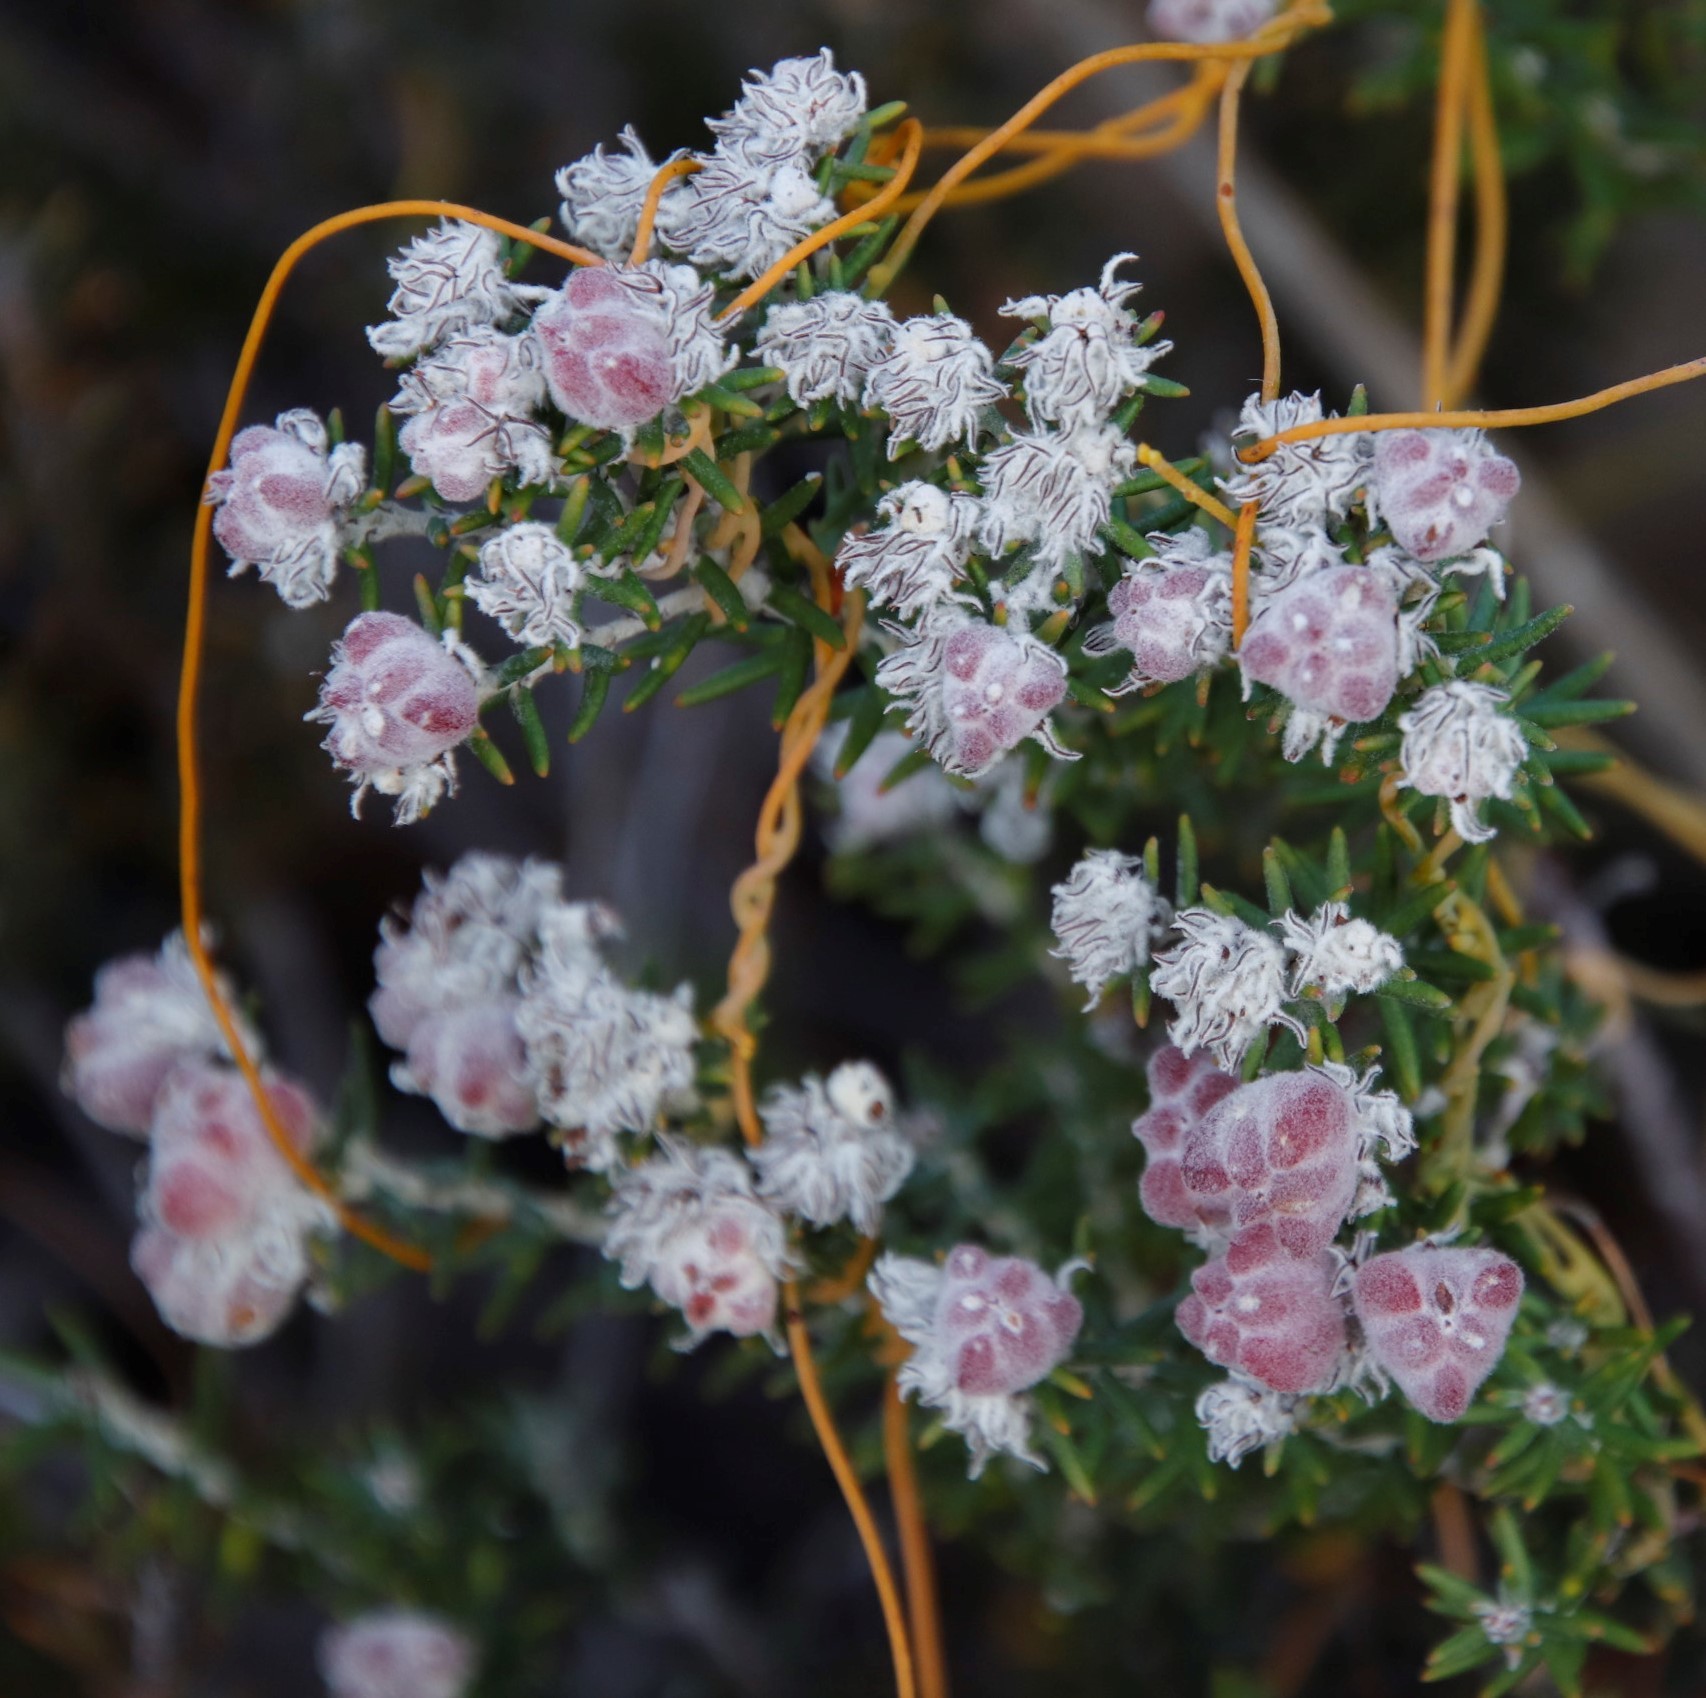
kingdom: Plantae
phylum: Tracheophyta
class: Magnoliopsida
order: Rosales
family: Rhamnaceae
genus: Trichocephalus
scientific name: Trichocephalus stipularis
